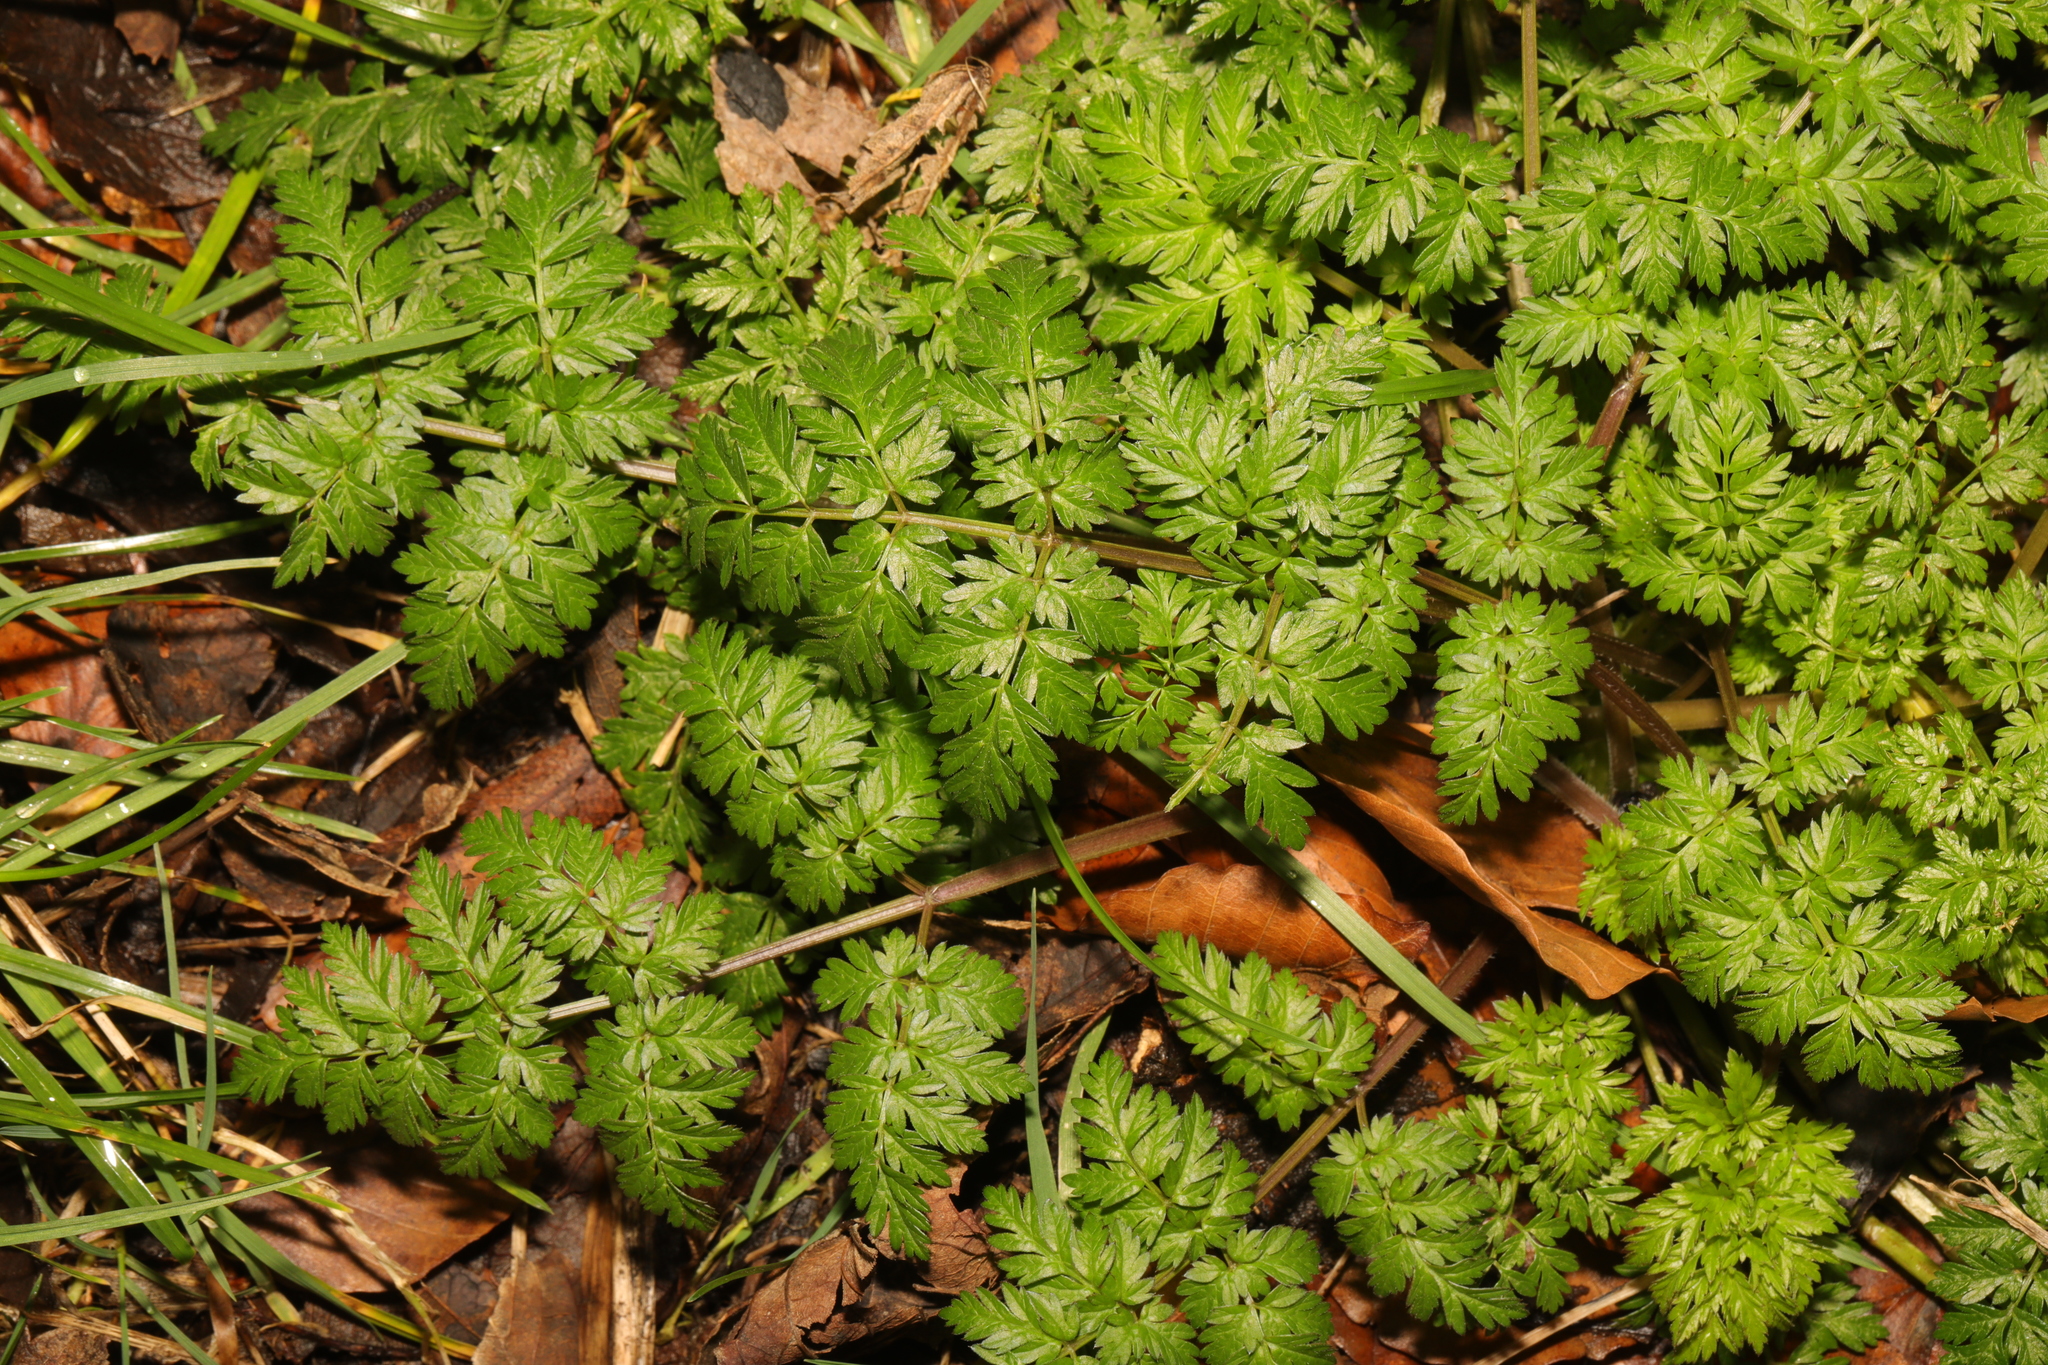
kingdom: Plantae
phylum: Tracheophyta
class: Magnoliopsida
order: Apiales
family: Apiaceae
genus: Anthriscus
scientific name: Anthriscus sylvestris
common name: Cow parsley
